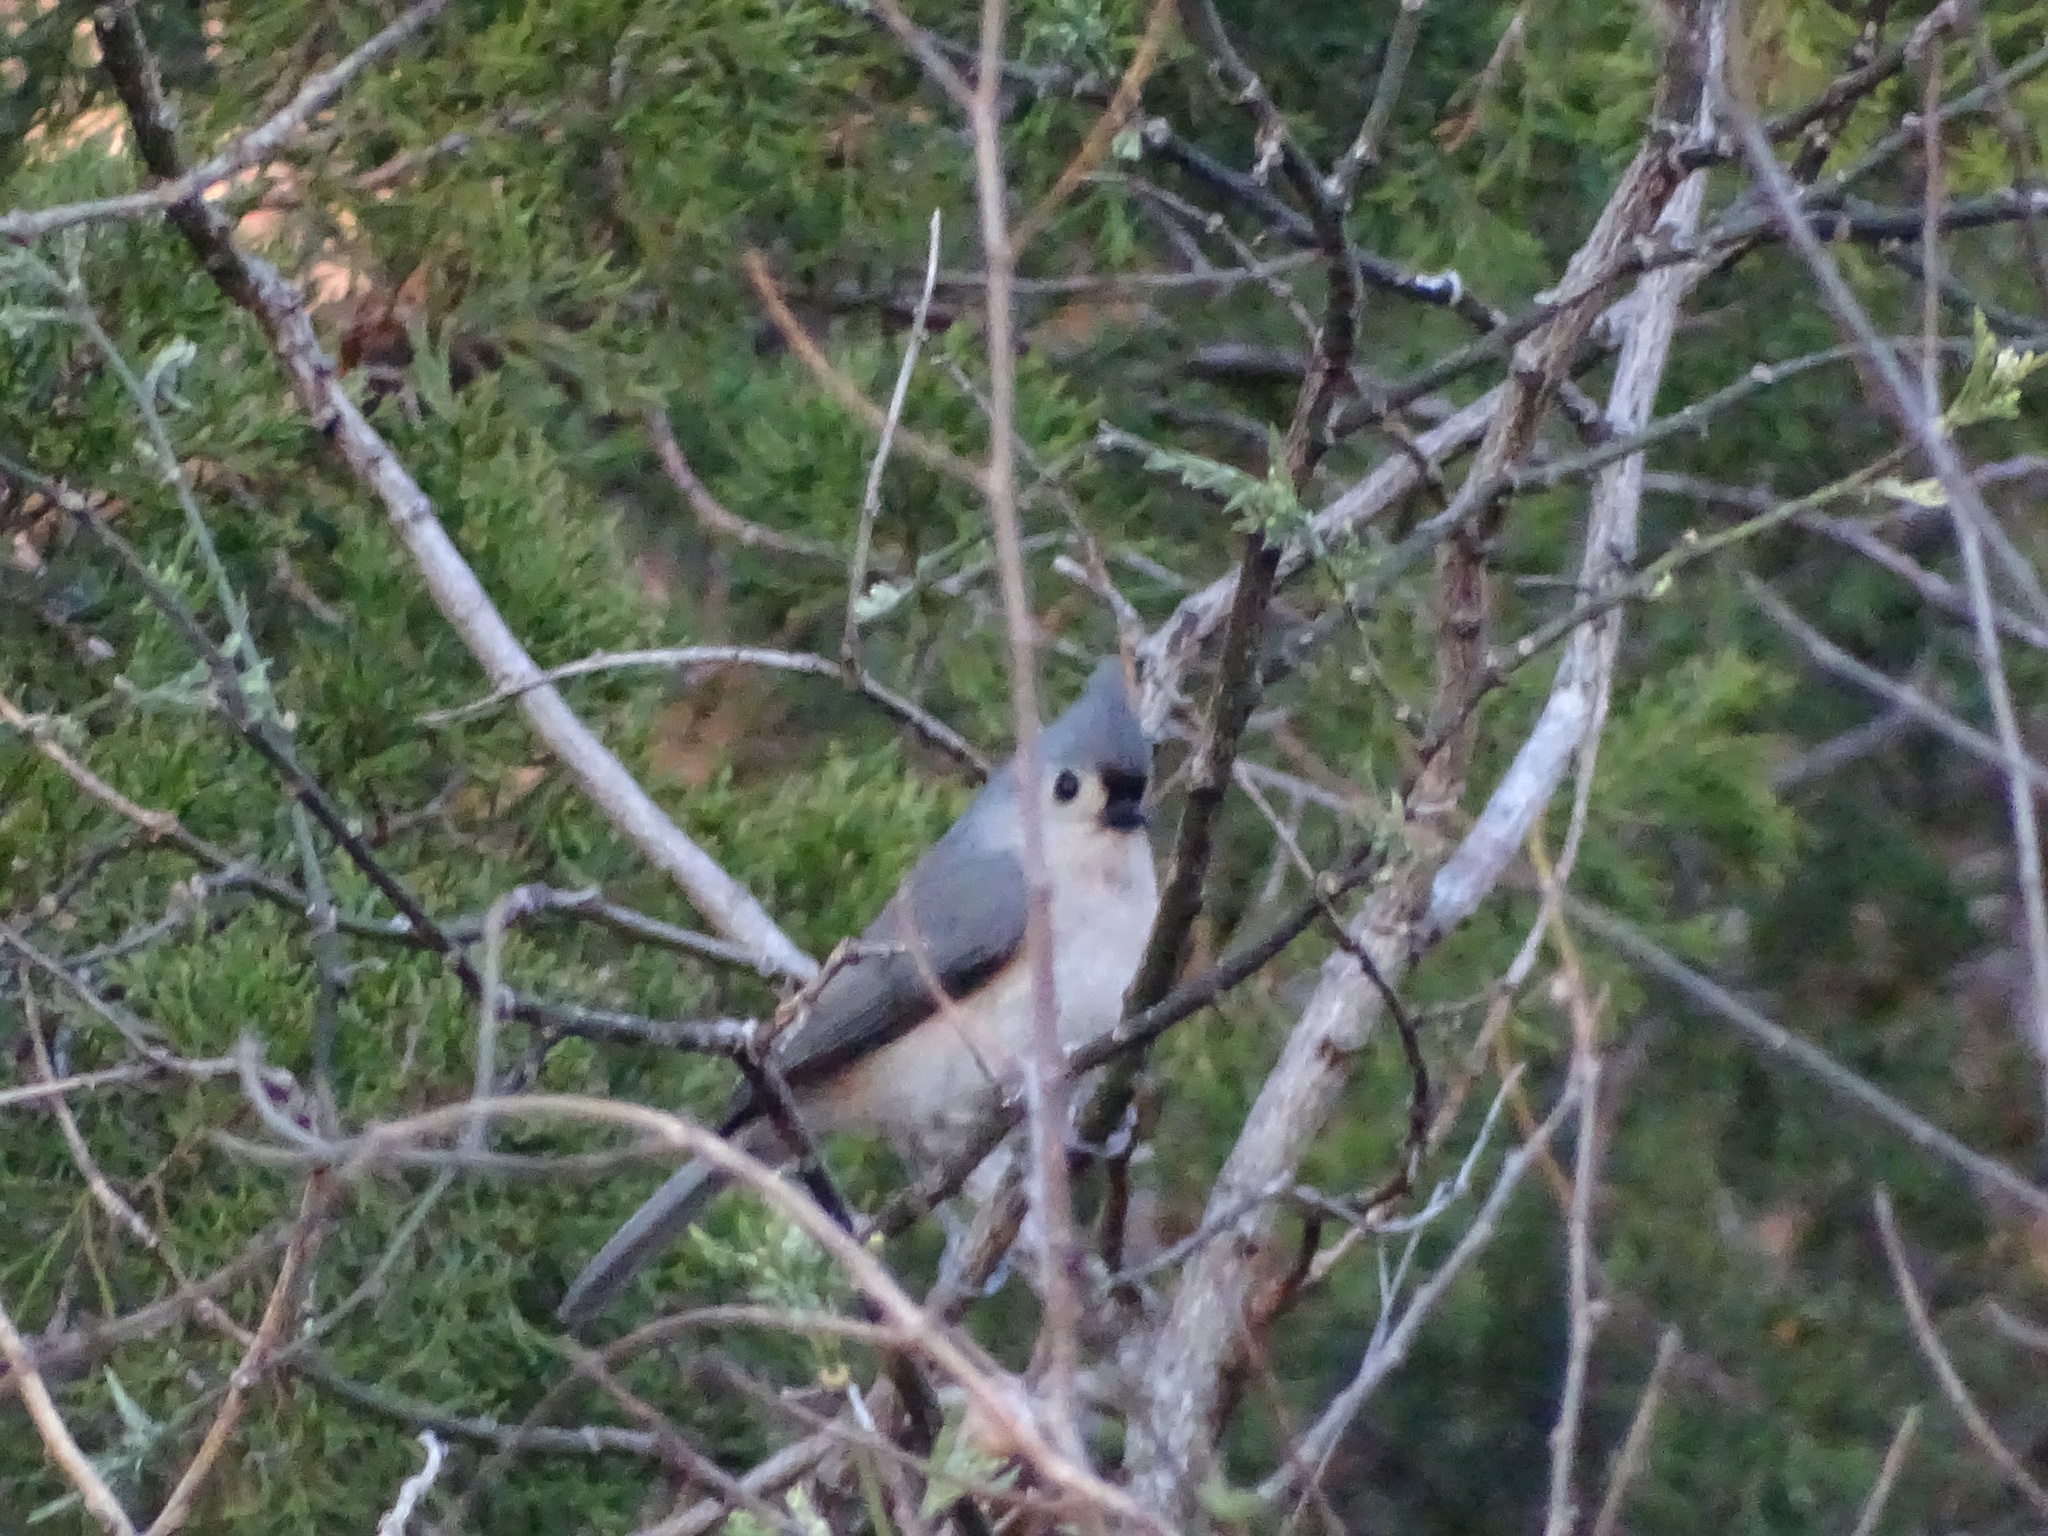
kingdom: Animalia
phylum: Chordata
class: Aves
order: Passeriformes
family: Paridae
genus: Baeolophus
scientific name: Baeolophus bicolor
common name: Tufted titmouse
